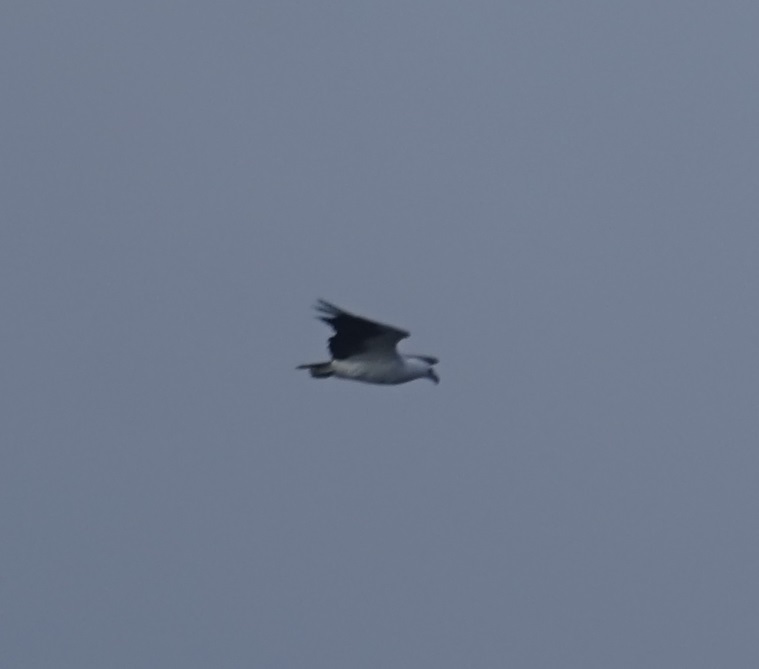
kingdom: Animalia
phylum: Chordata
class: Aves
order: Accipitriformes
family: Accipitridae
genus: Haliaeetus
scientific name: Haliaeetus leucogaster
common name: White-bellied sea eagle
